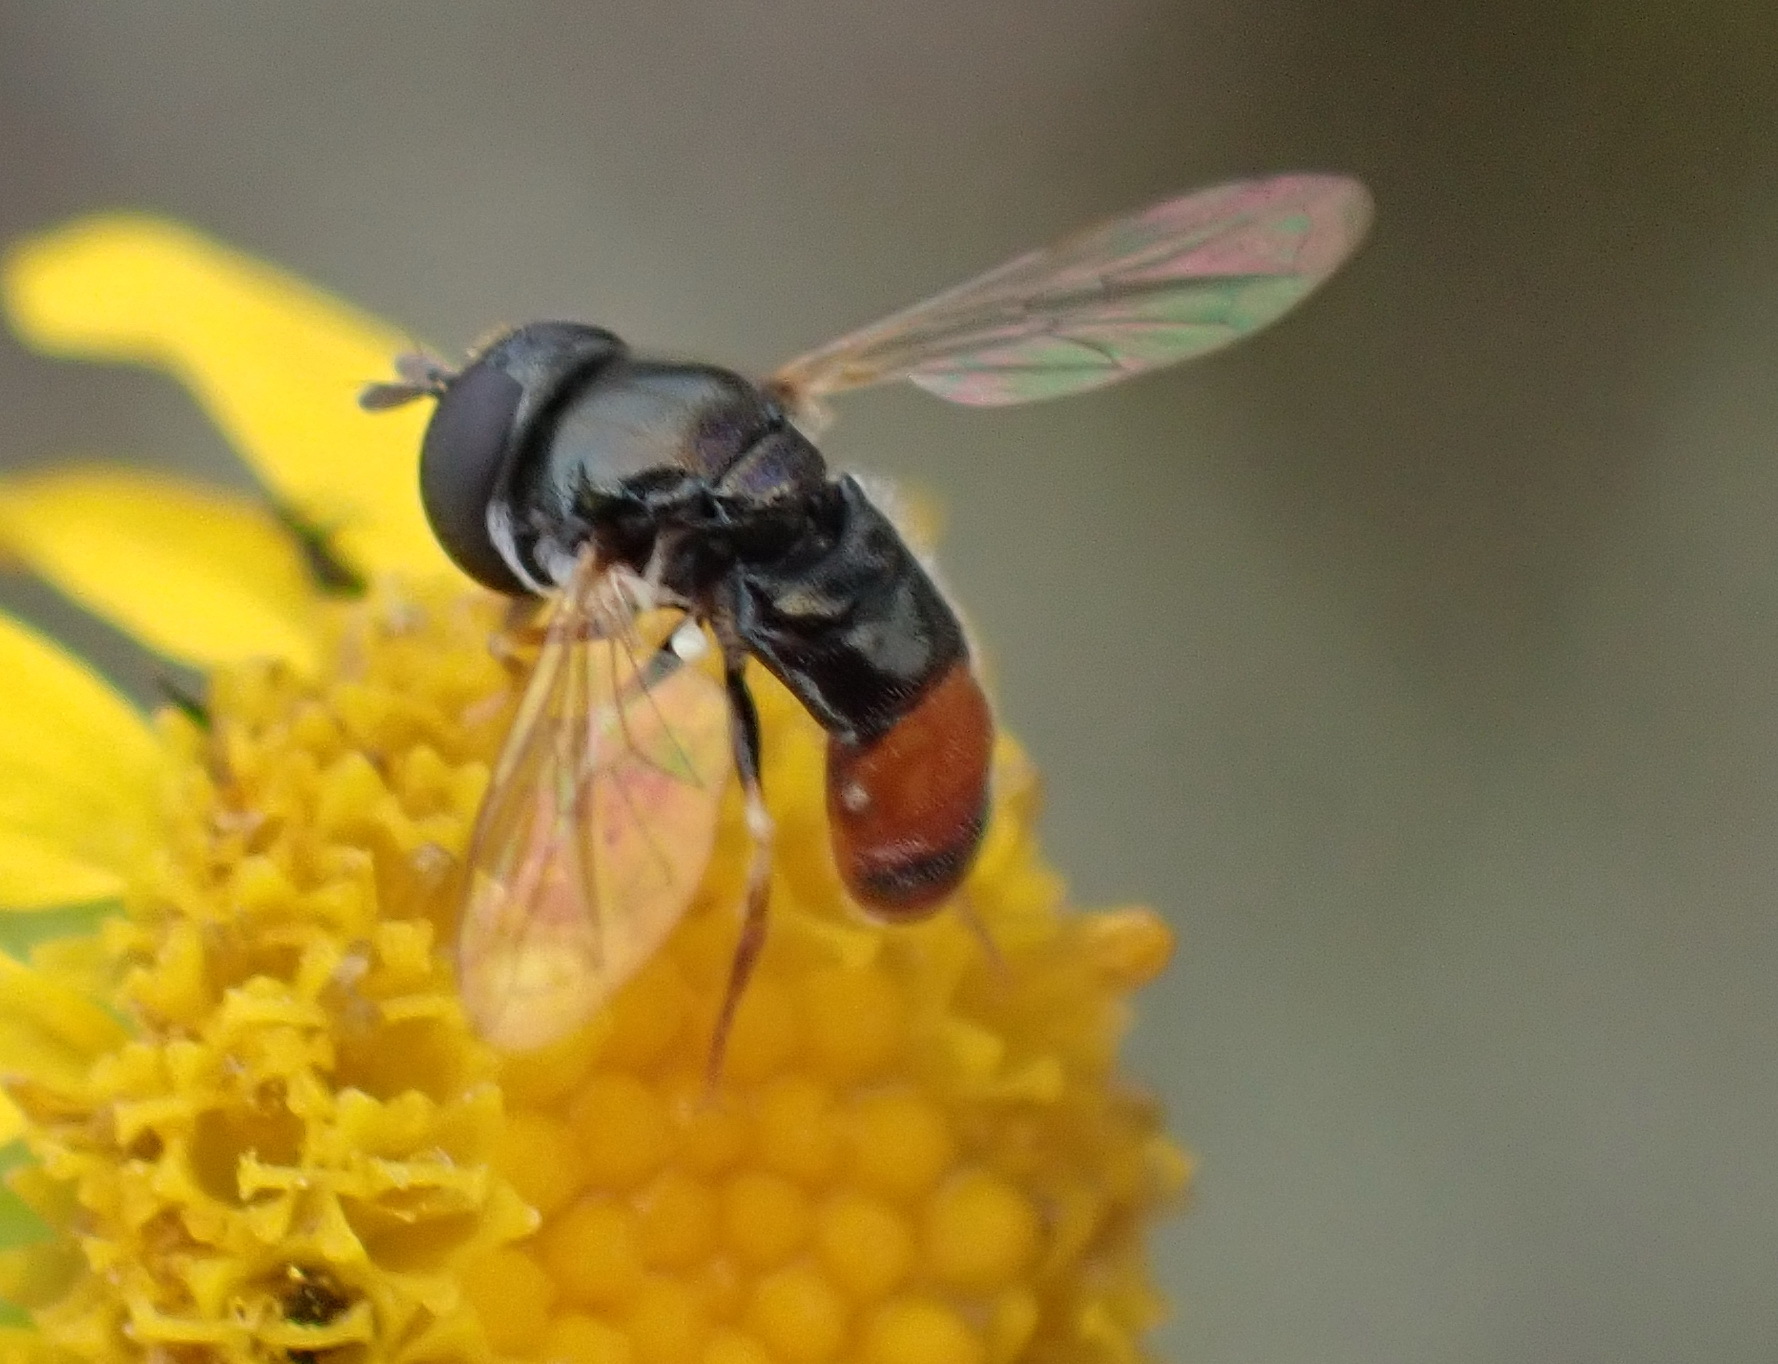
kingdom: Animalia
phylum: Arthropoda
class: Insecta
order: Diptera
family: Syrphidae
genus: Paragus
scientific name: Paragus haemorrhous
